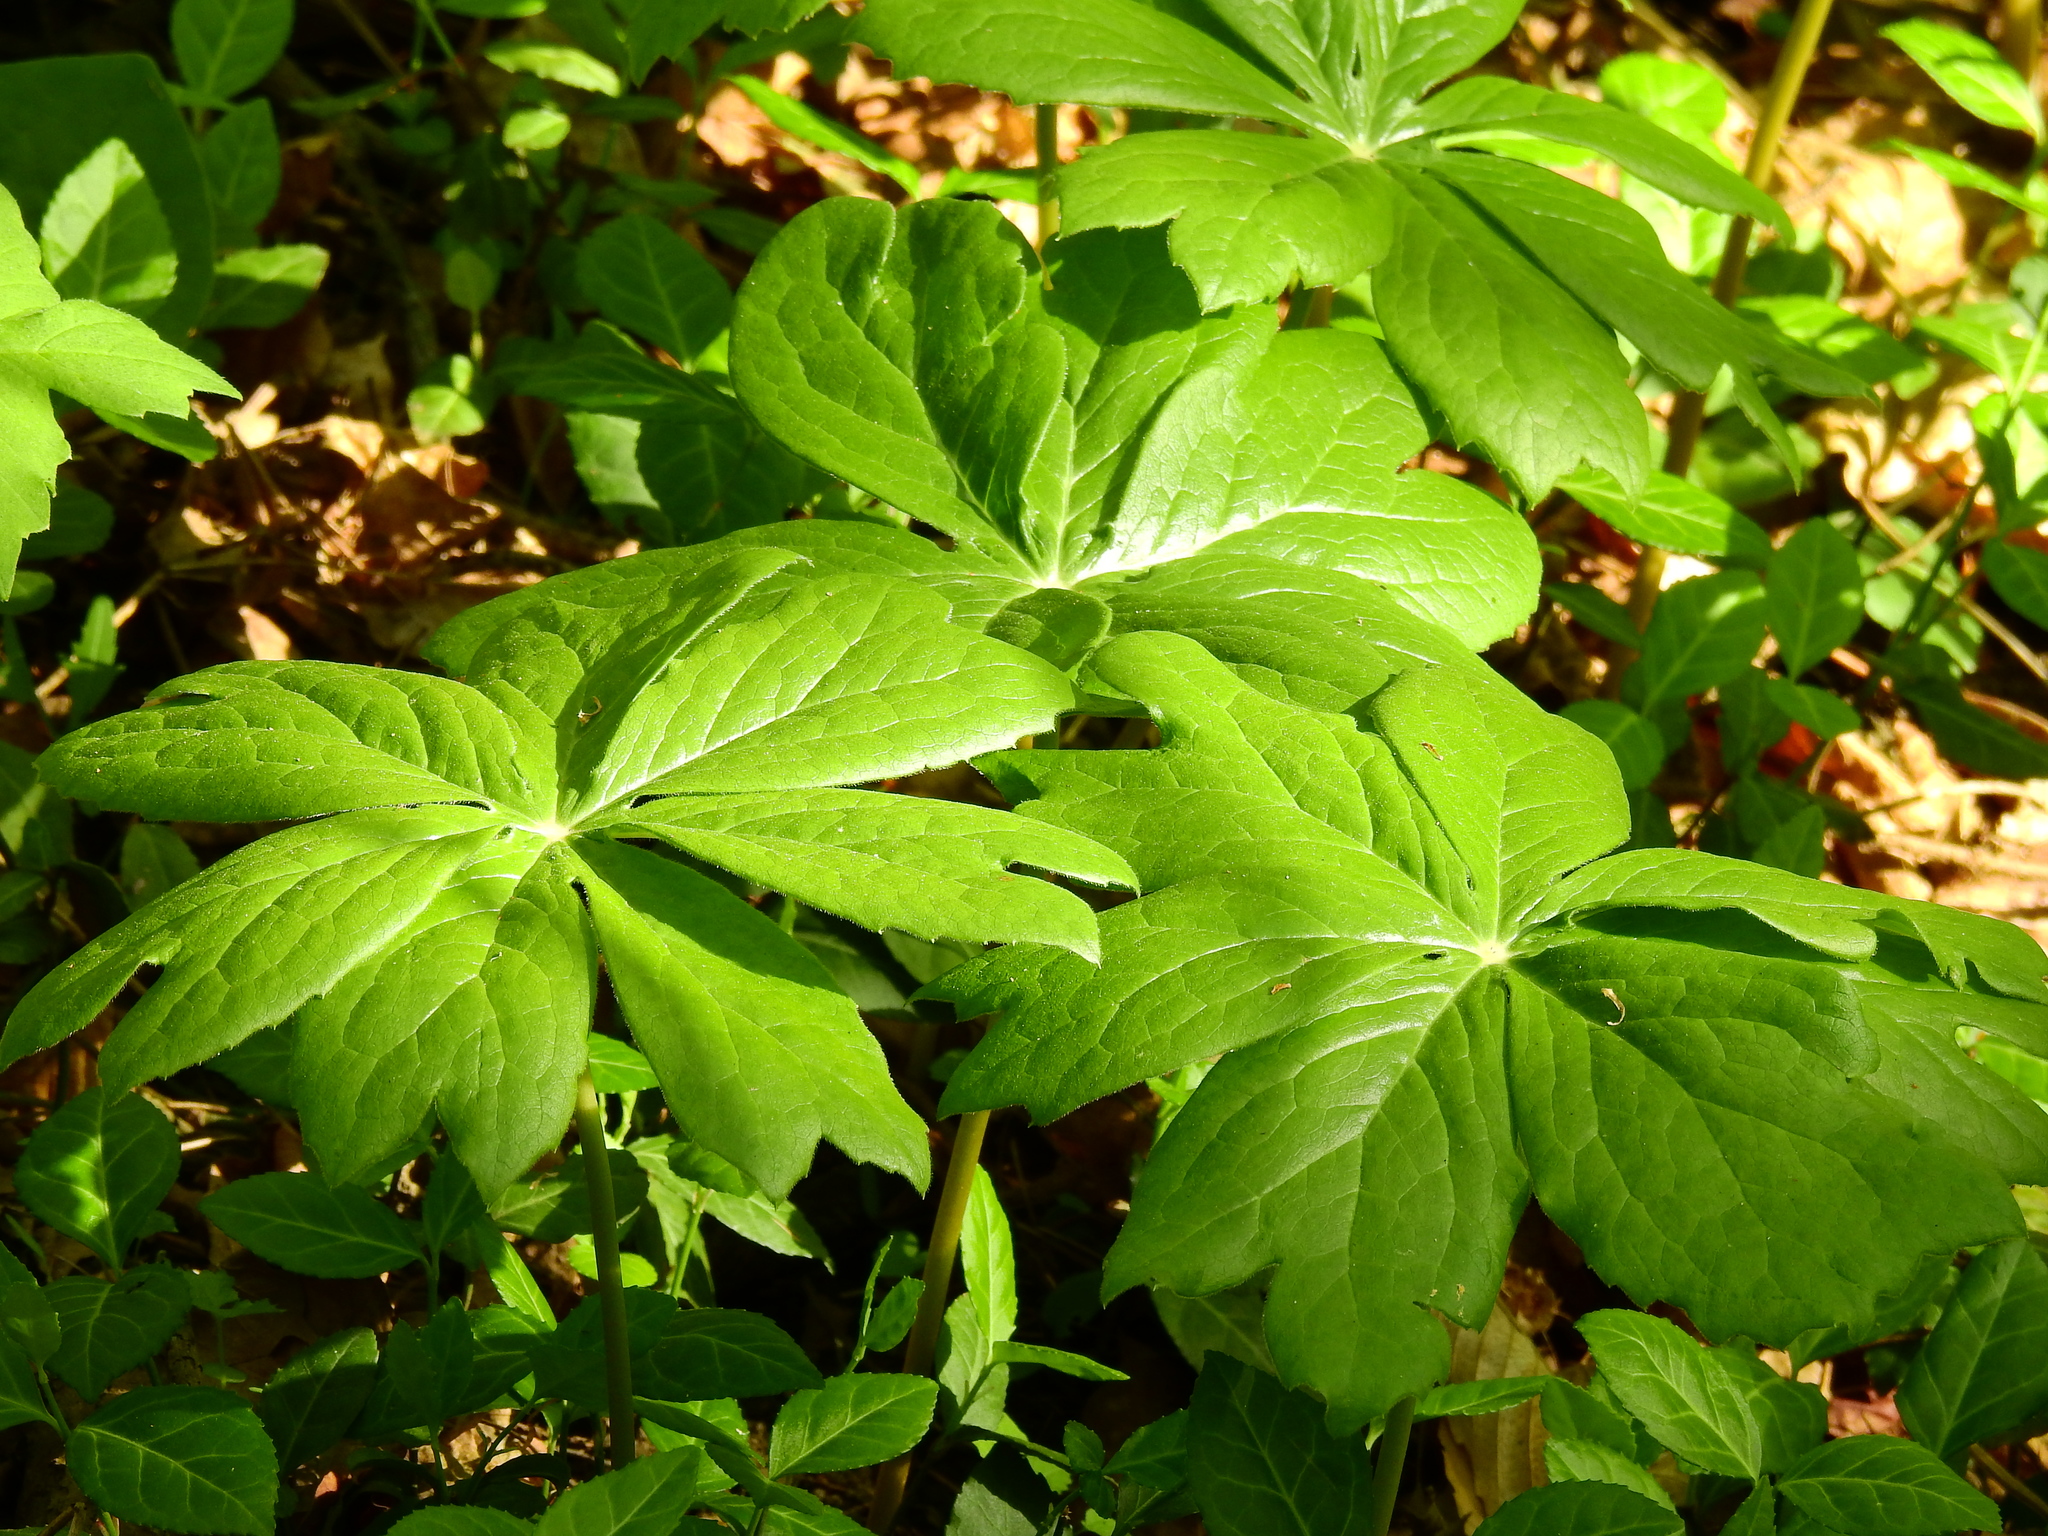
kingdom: Plantae
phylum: Tracheophyta
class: Magnoliopsida
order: Ranunculales
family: Berberidaceae
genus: Podophyllum
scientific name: Podophyllum peltatum
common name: Wild mandrake
